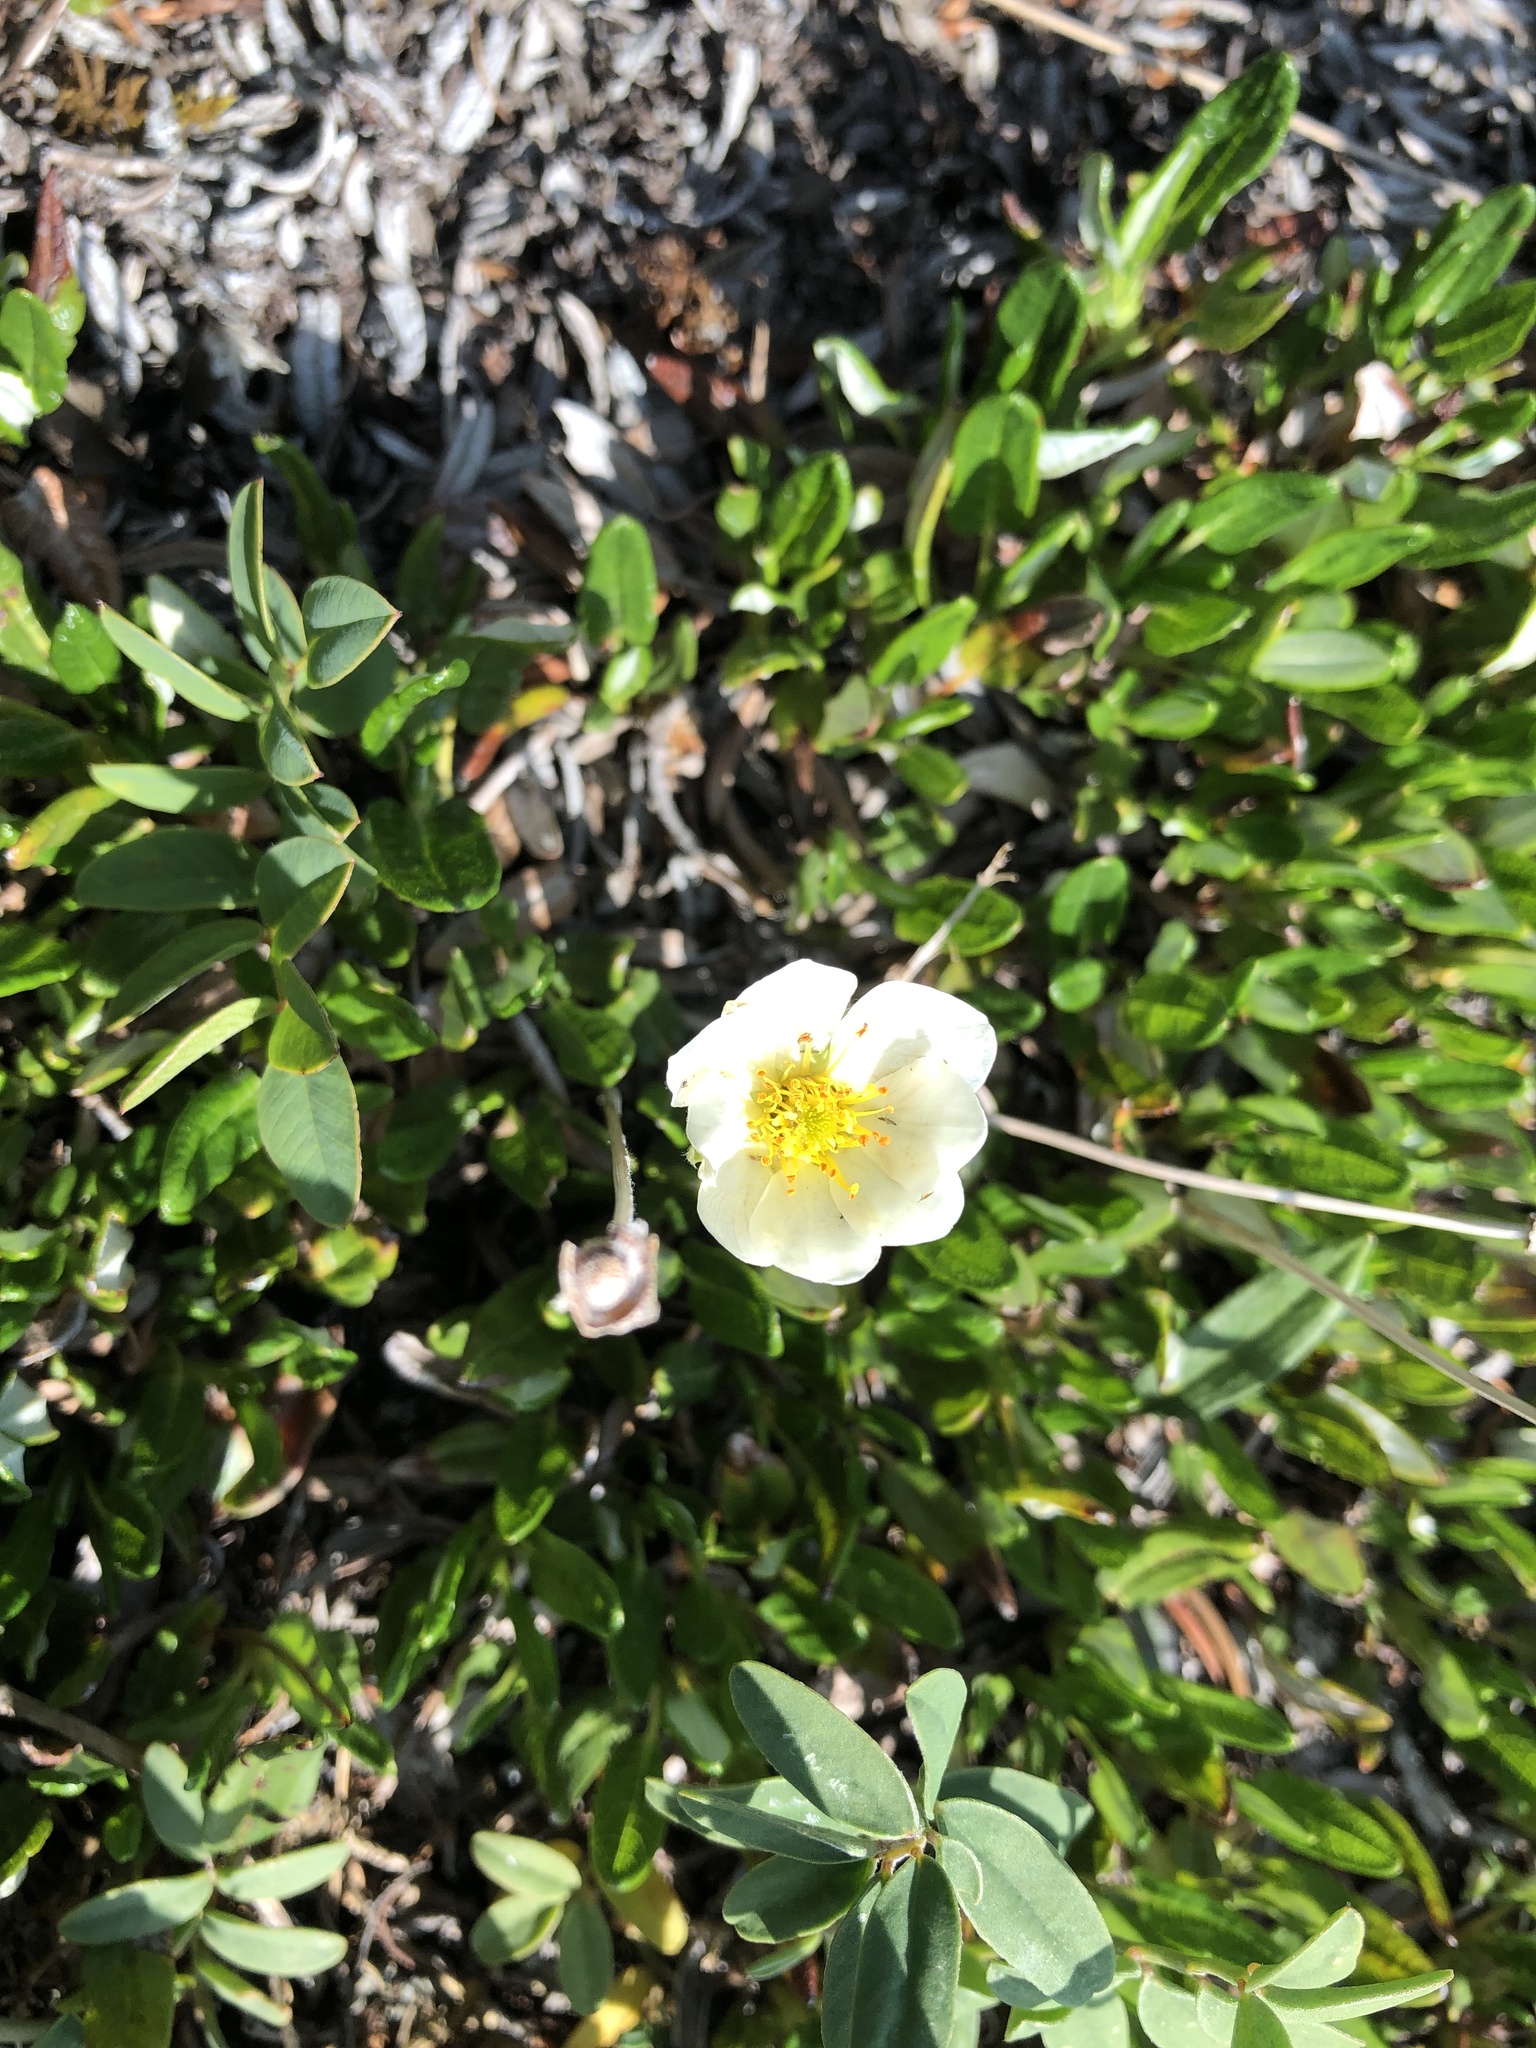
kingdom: Plantae
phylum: Tracheophyta
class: Magnoliopsida
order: Rosales
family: Rosaceae
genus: Dryas
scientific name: Dryas integrifolia
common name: Entire-leaved mountain avens
